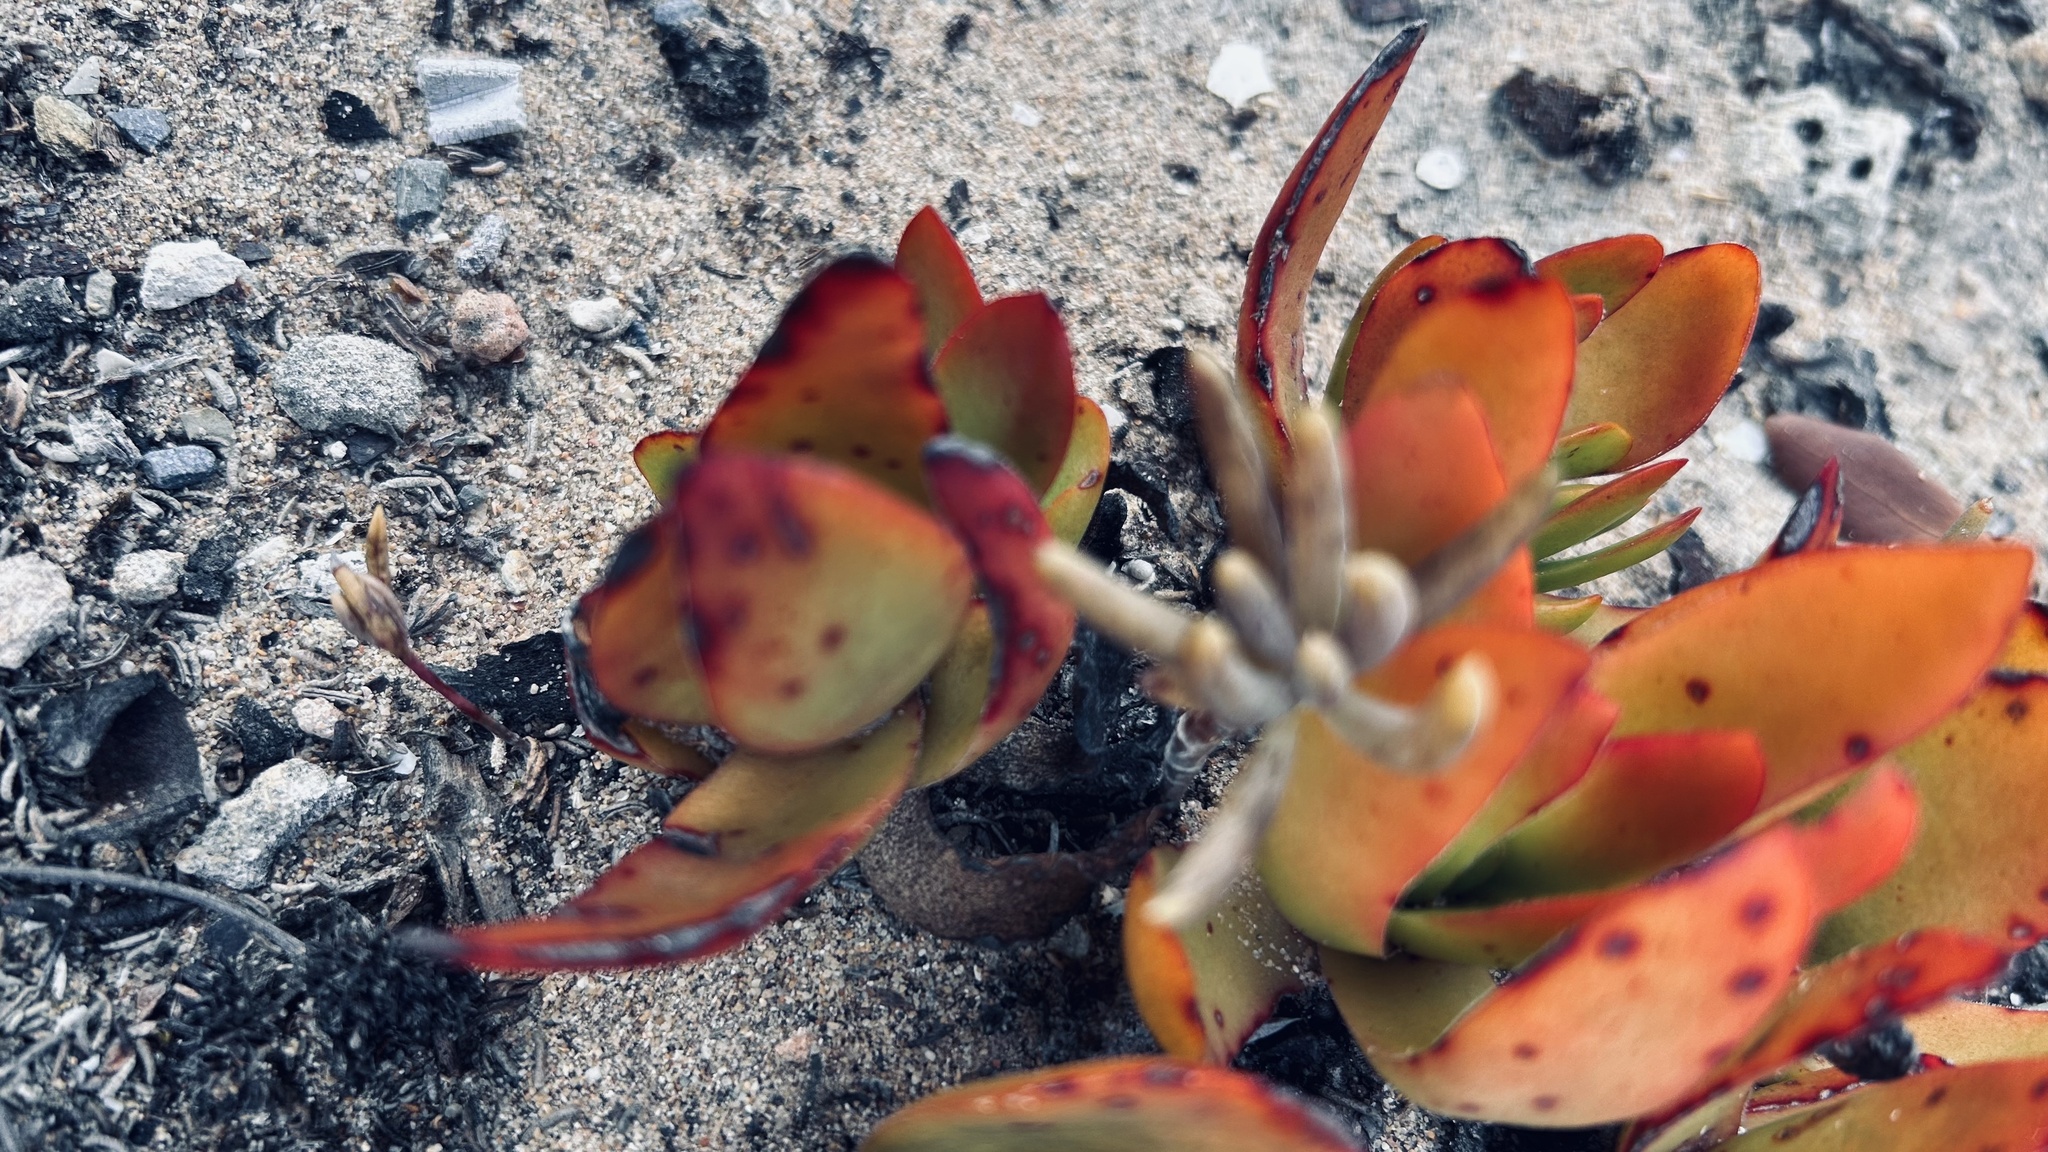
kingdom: Plantae
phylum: Tracheophyta
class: Magnoliopsida
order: Saxifragales
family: Crassulaceae
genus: Crassula
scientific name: Crassula nudicaulis
